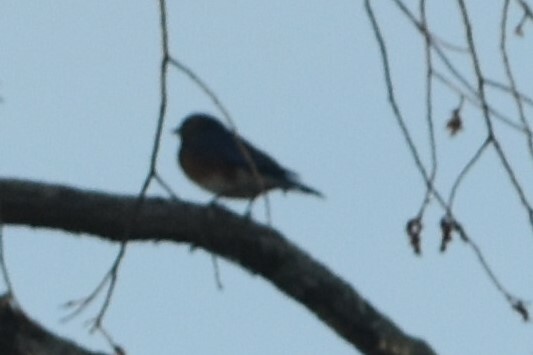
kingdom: Animalia
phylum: Chordata
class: Aves
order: Passeriformes
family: Turdidae
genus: Sialia
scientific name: Sialia sialis
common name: Eastern bluebird
